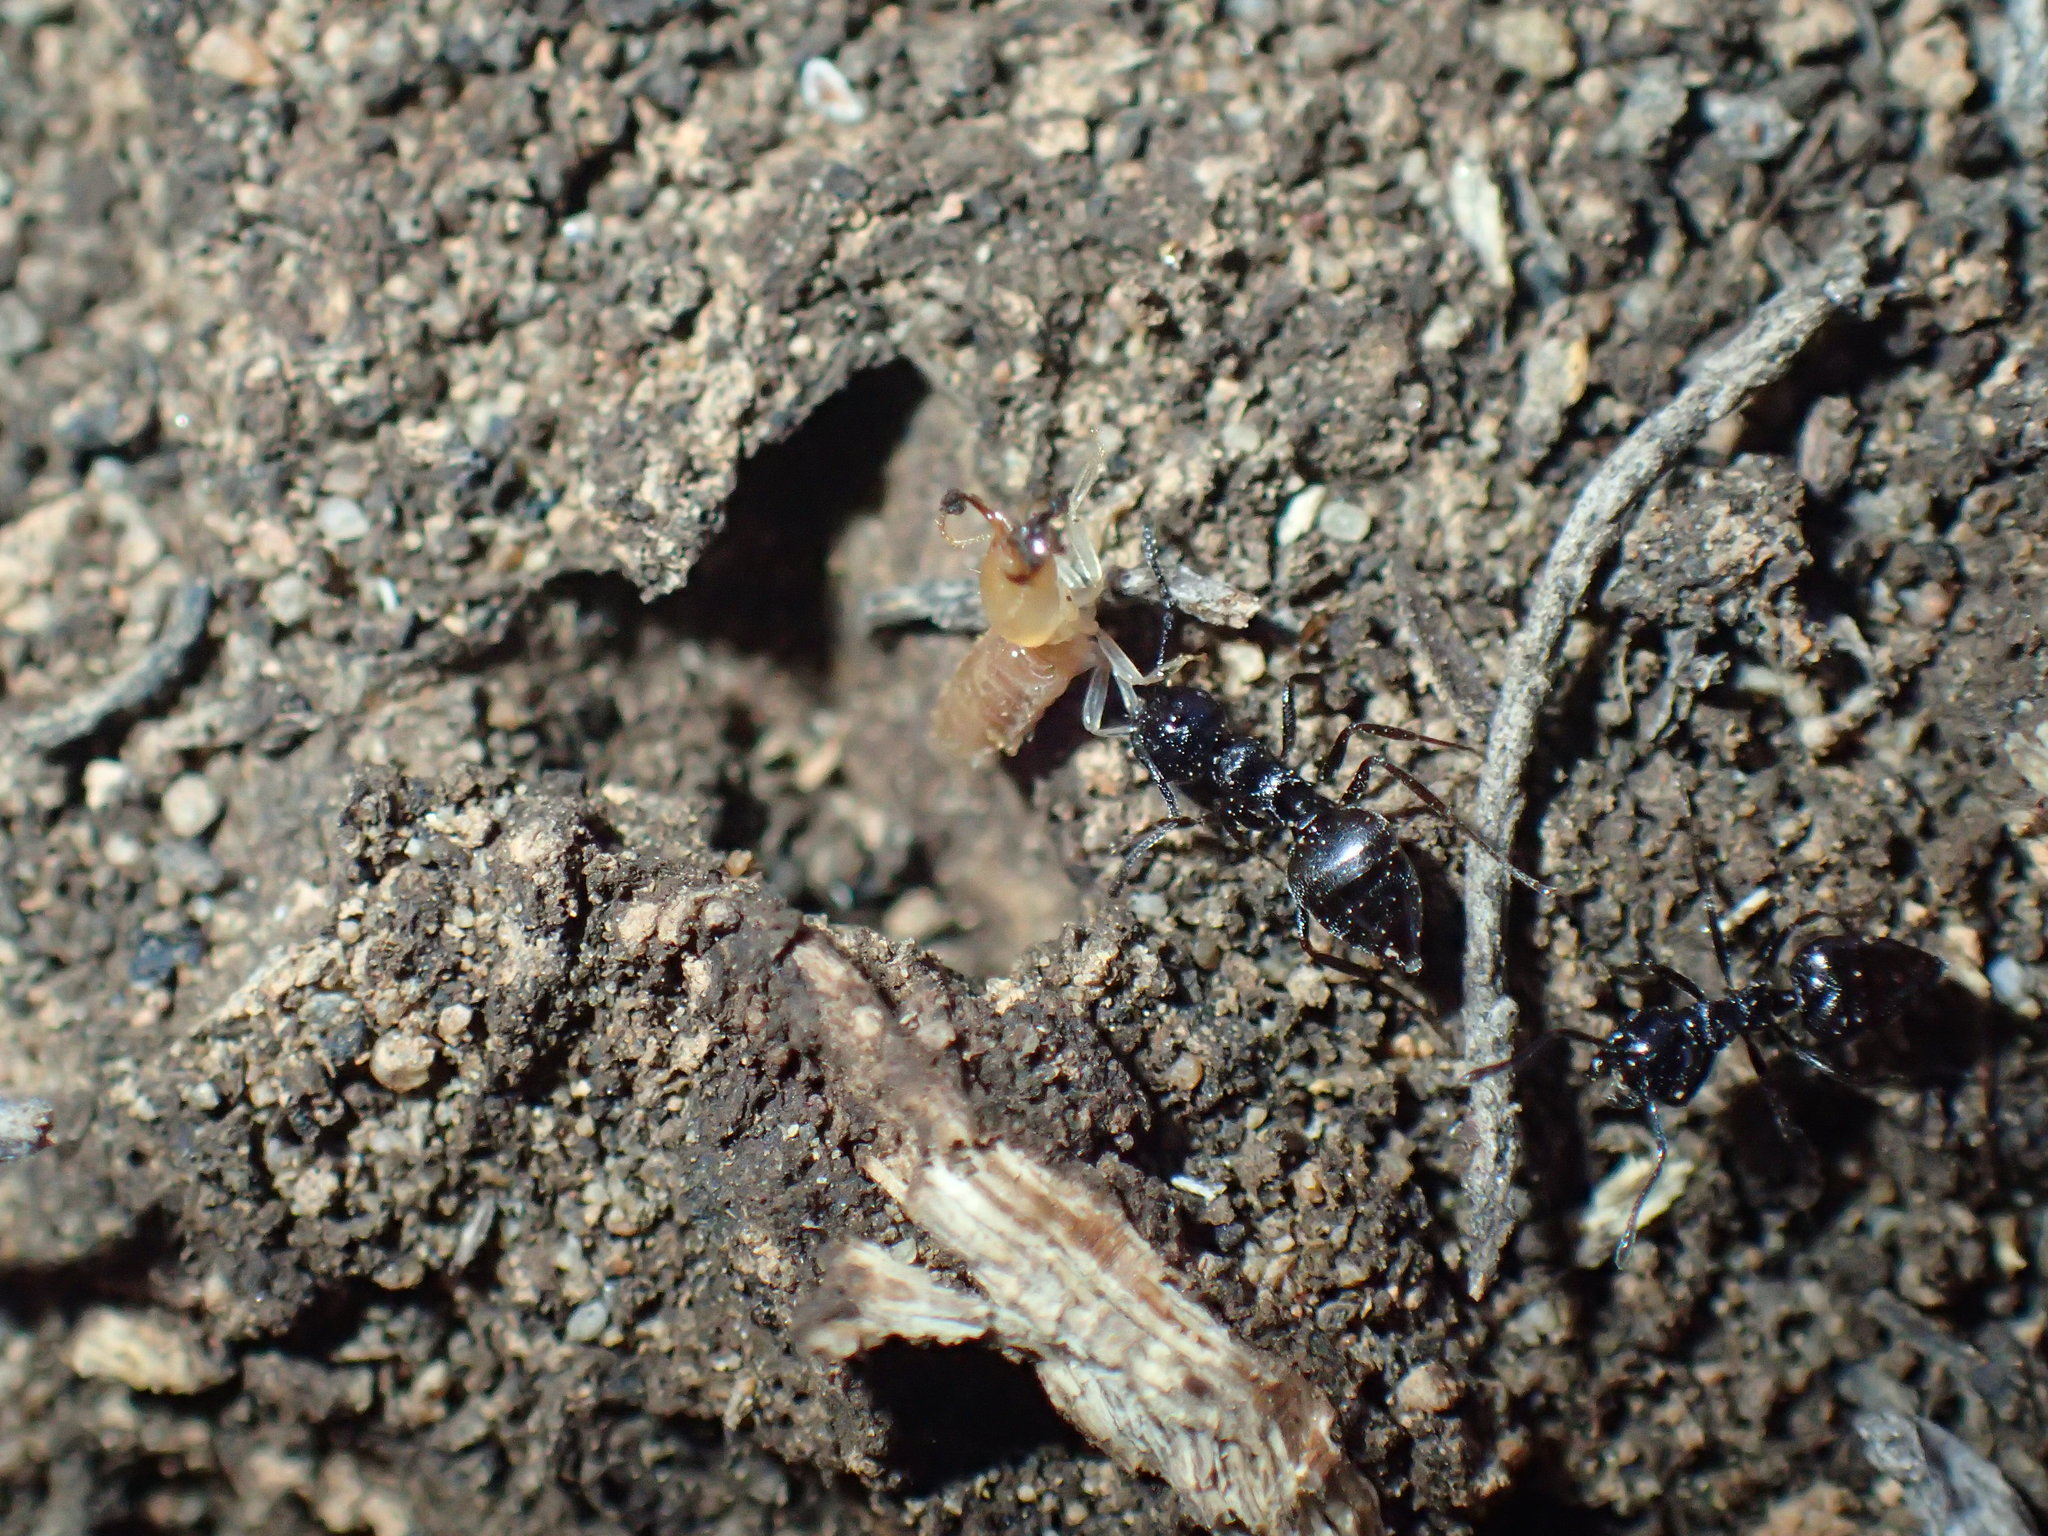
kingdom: Animalia
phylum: Arthropoda
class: Insecta
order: Hymenoptera
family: Formicidae
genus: Crematogaster
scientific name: Crematogaster peringueyi
